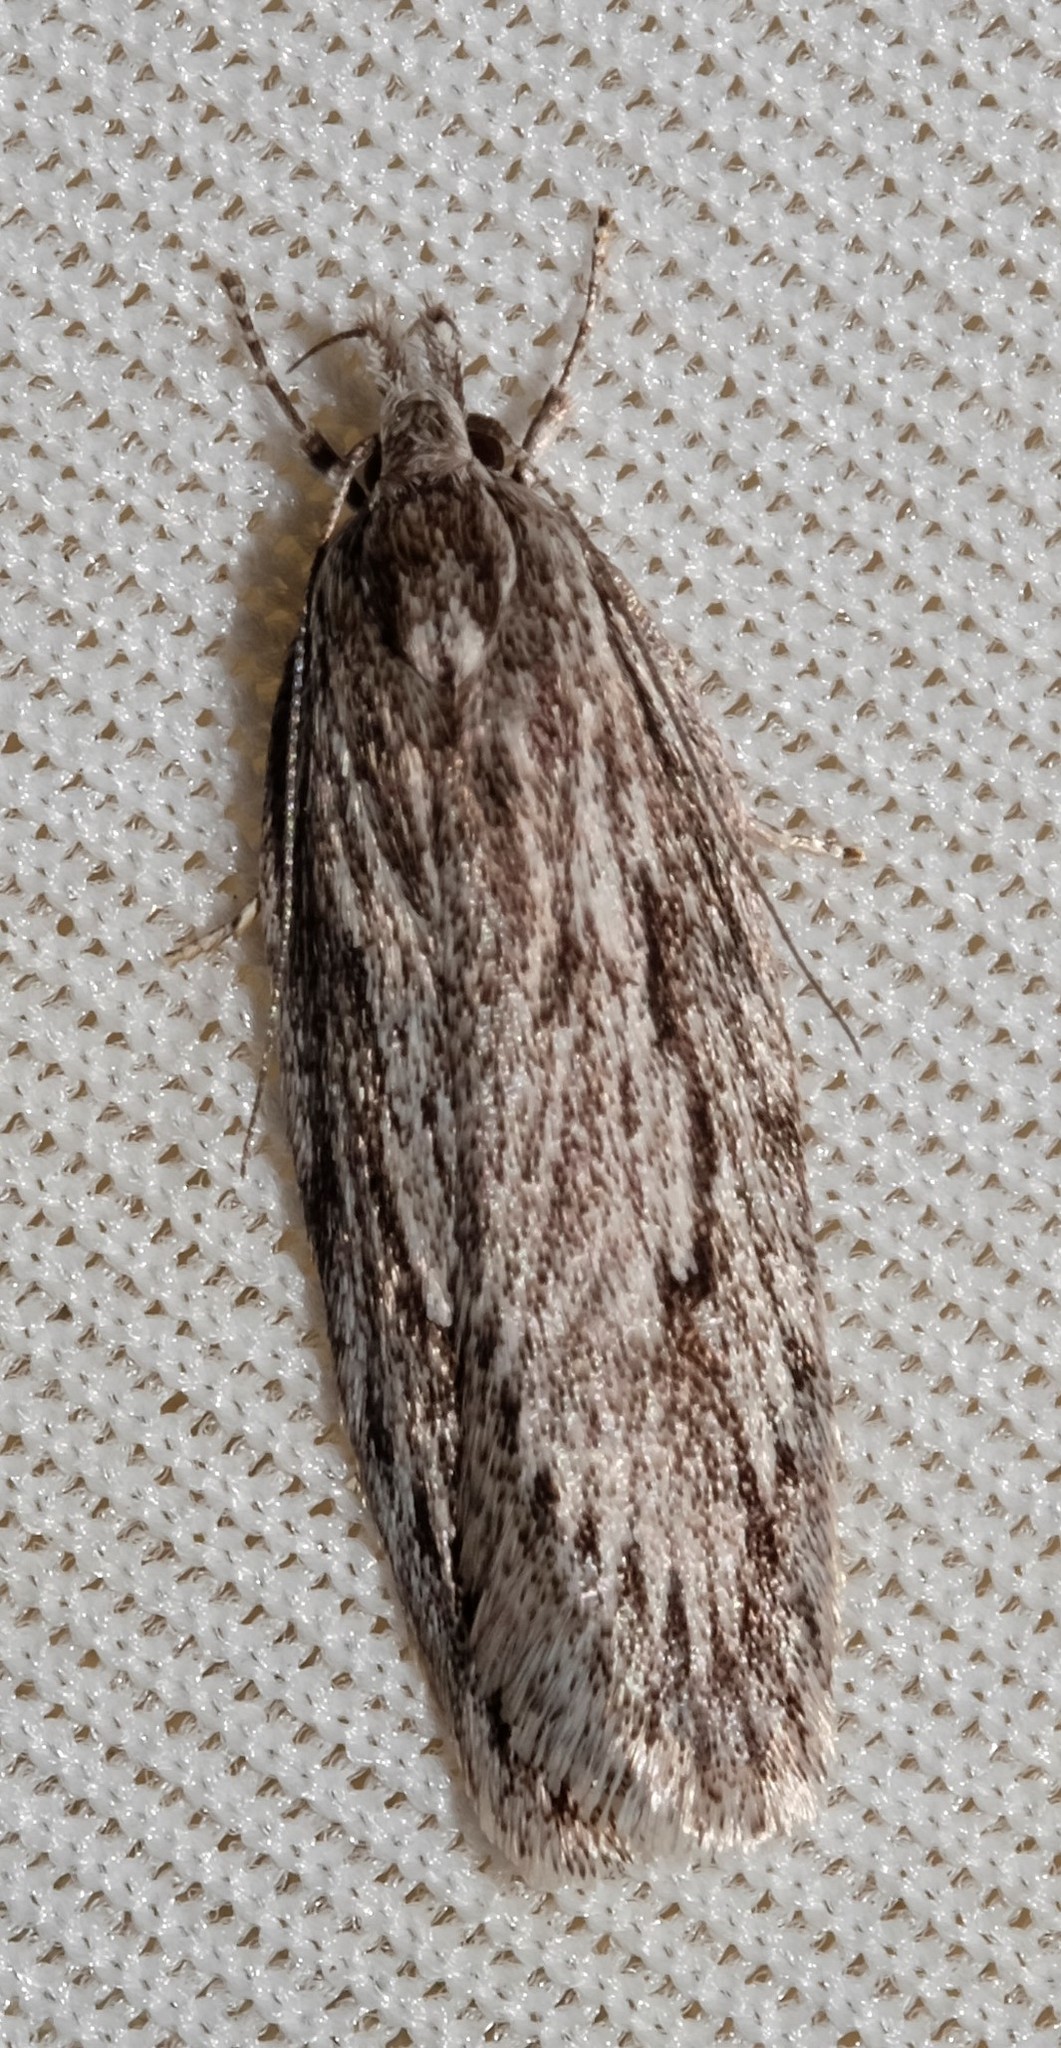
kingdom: Animalia
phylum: Arthropoda
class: Insecta
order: Lepidoptera
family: Oecophoridae
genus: Anomozancla
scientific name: Anomozancla scopariella
